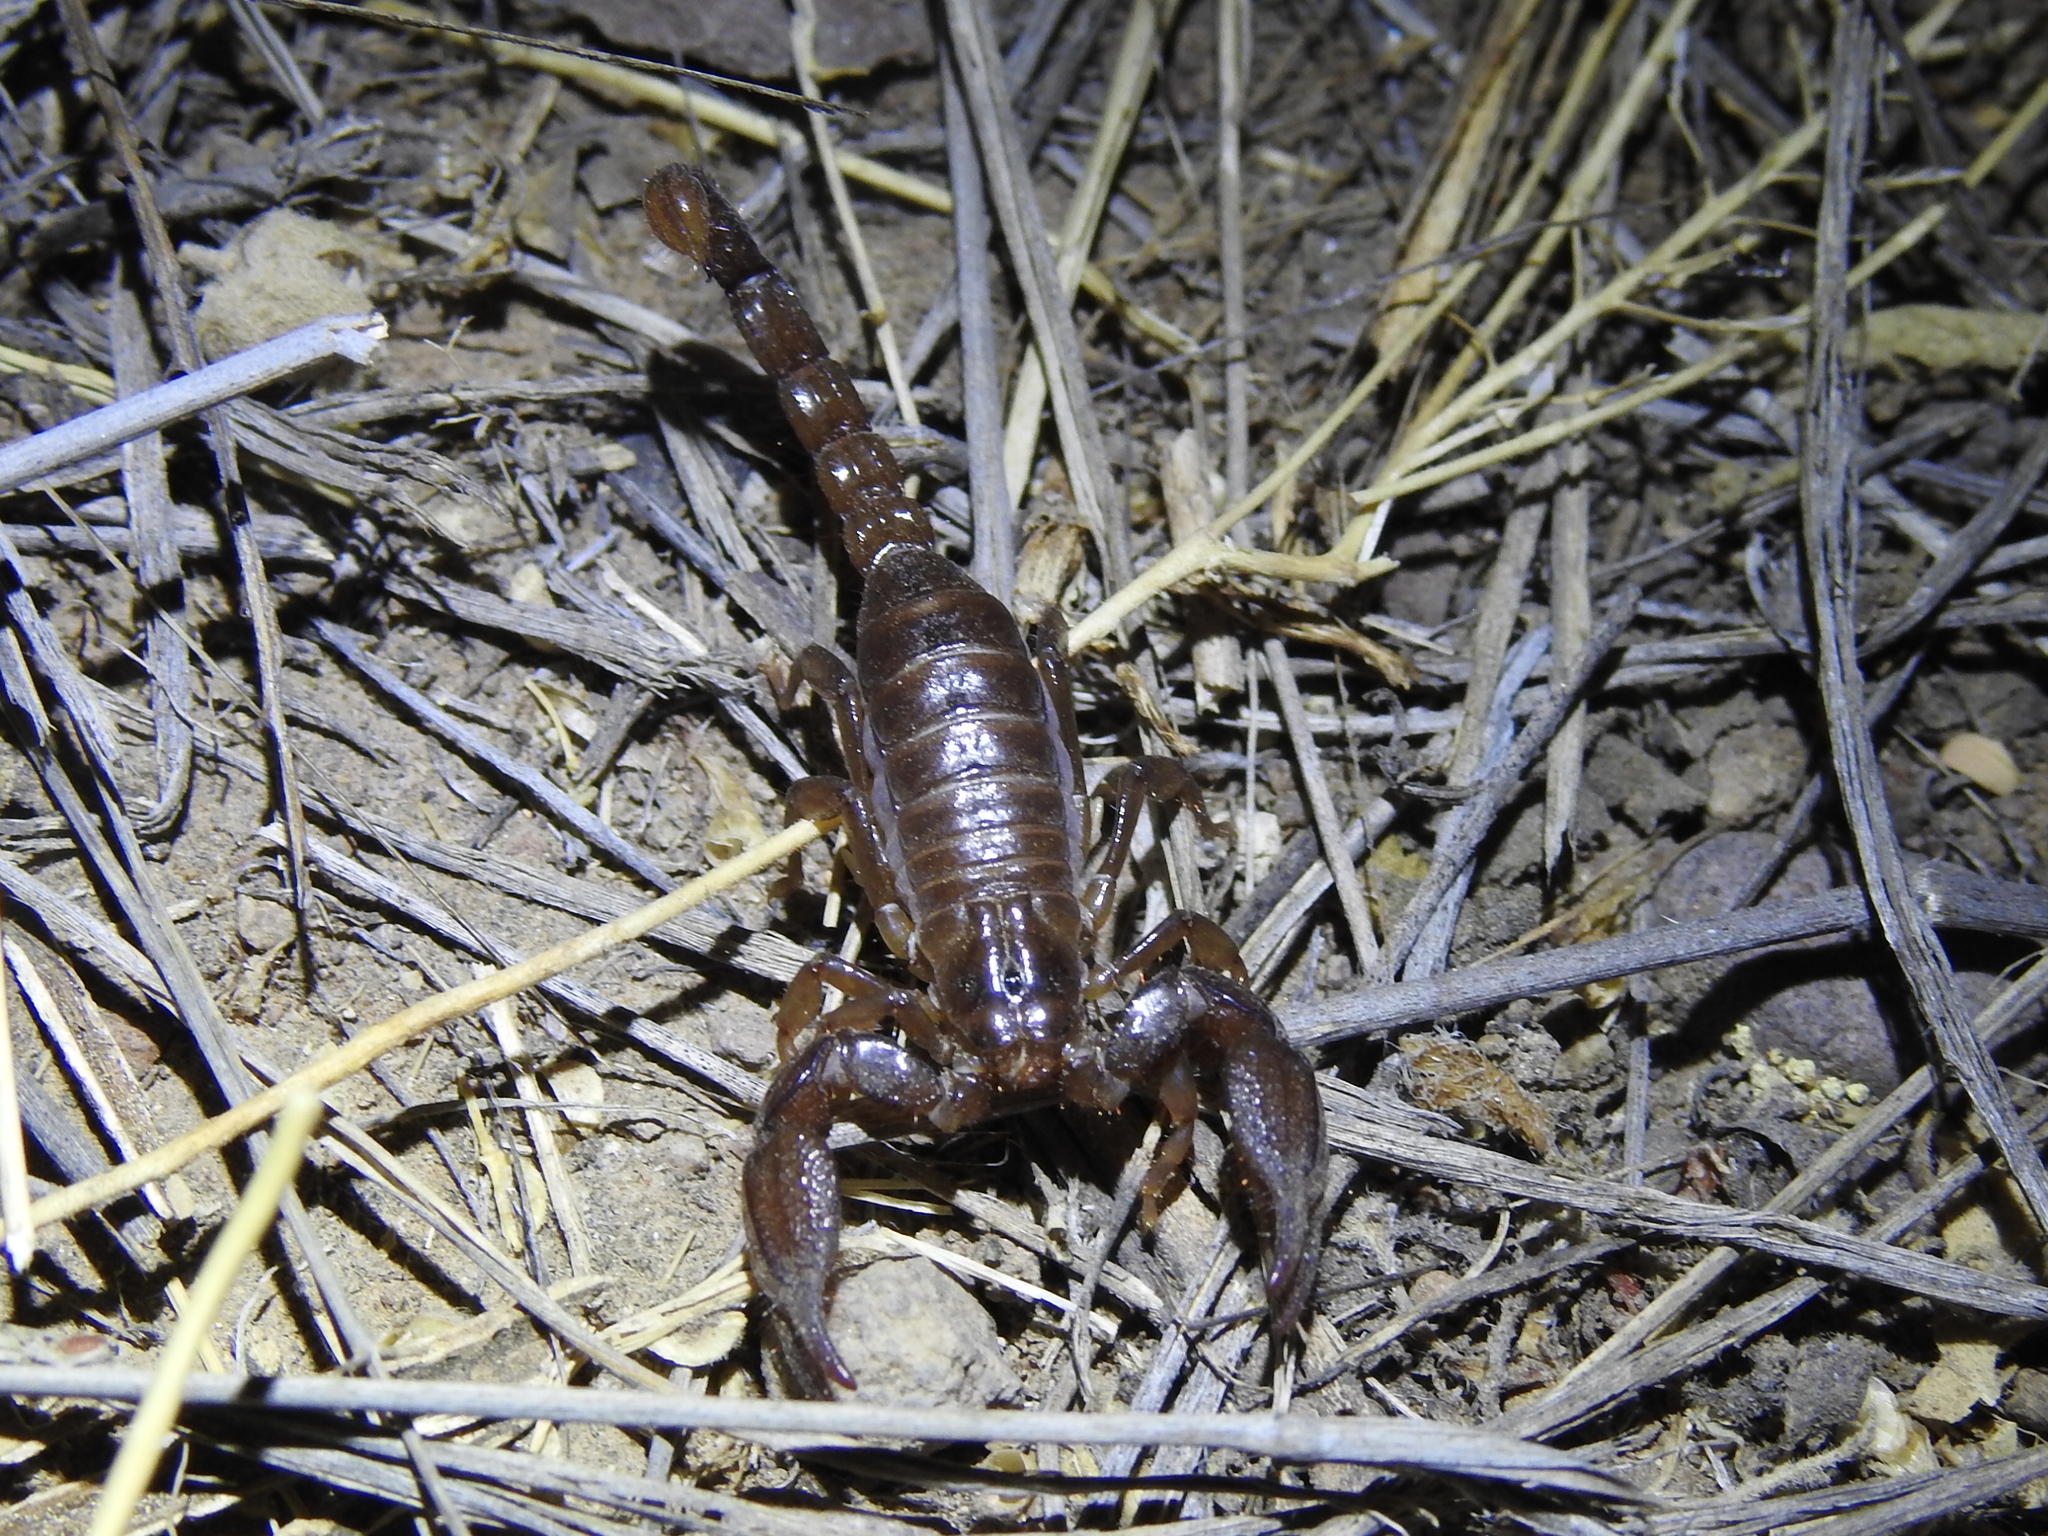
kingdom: Animalia
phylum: Arthropoda
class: Arachnida
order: Scorpiones
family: Diplocentridae
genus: Diplocentrus
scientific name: Diplocentrus lindo
